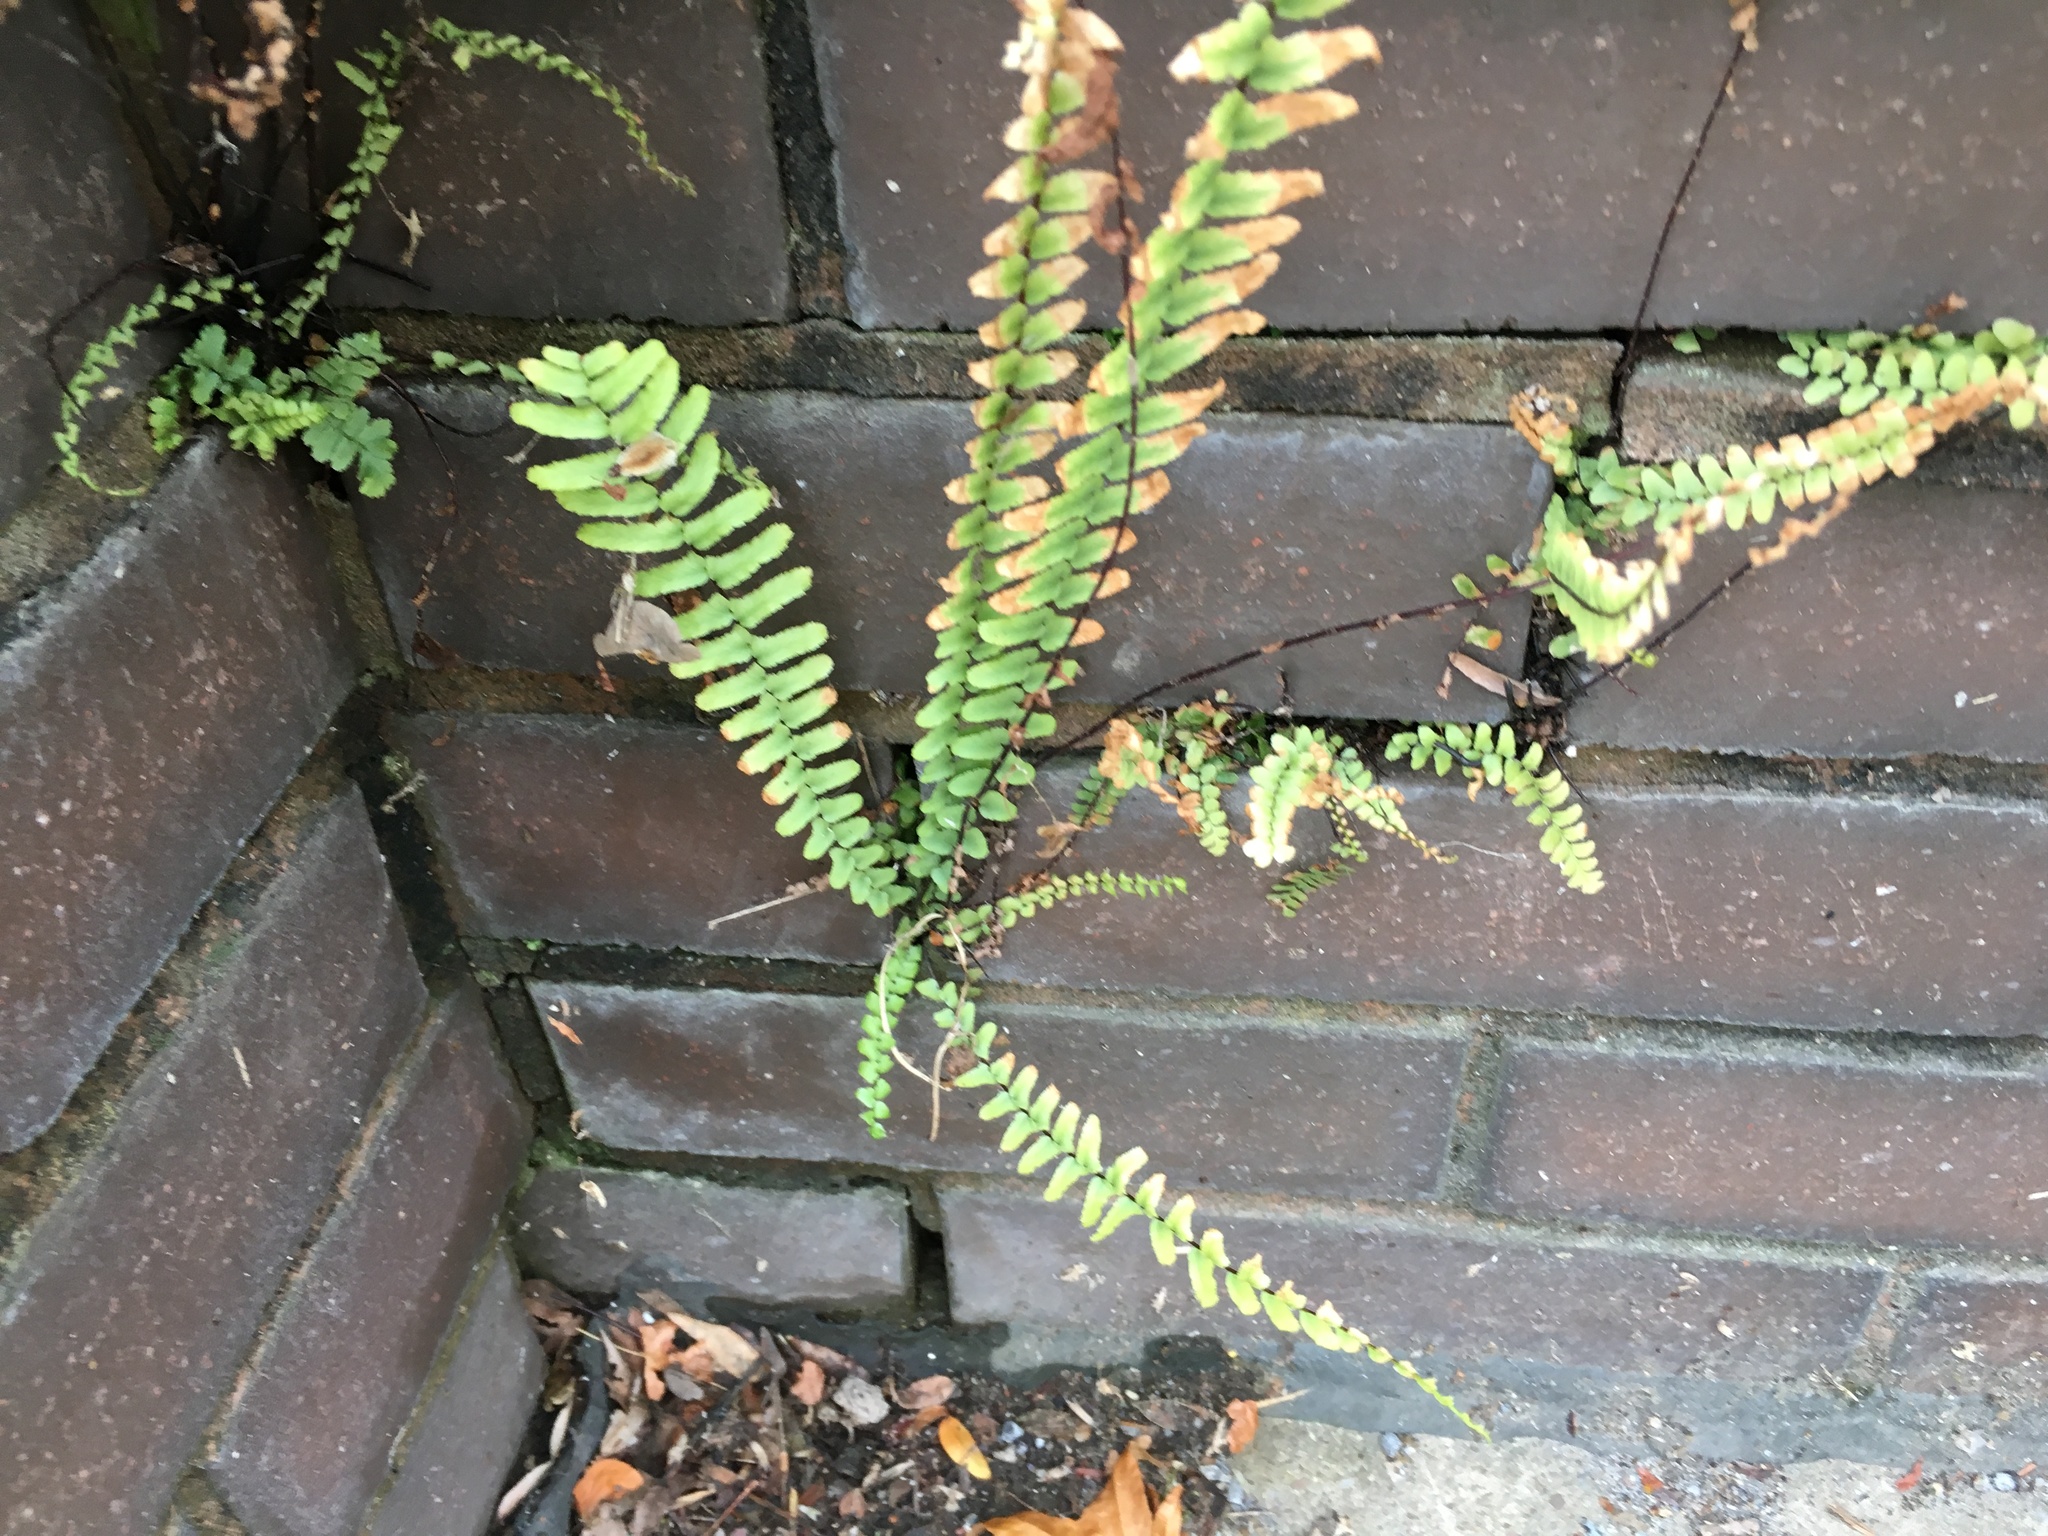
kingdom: Plantae
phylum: Tracheophyta
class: Polypodiopsida
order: Polypodiales
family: Aspleniaceae
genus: Asplenium
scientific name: Asplenium platyneuron
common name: Ebony spleenwort
